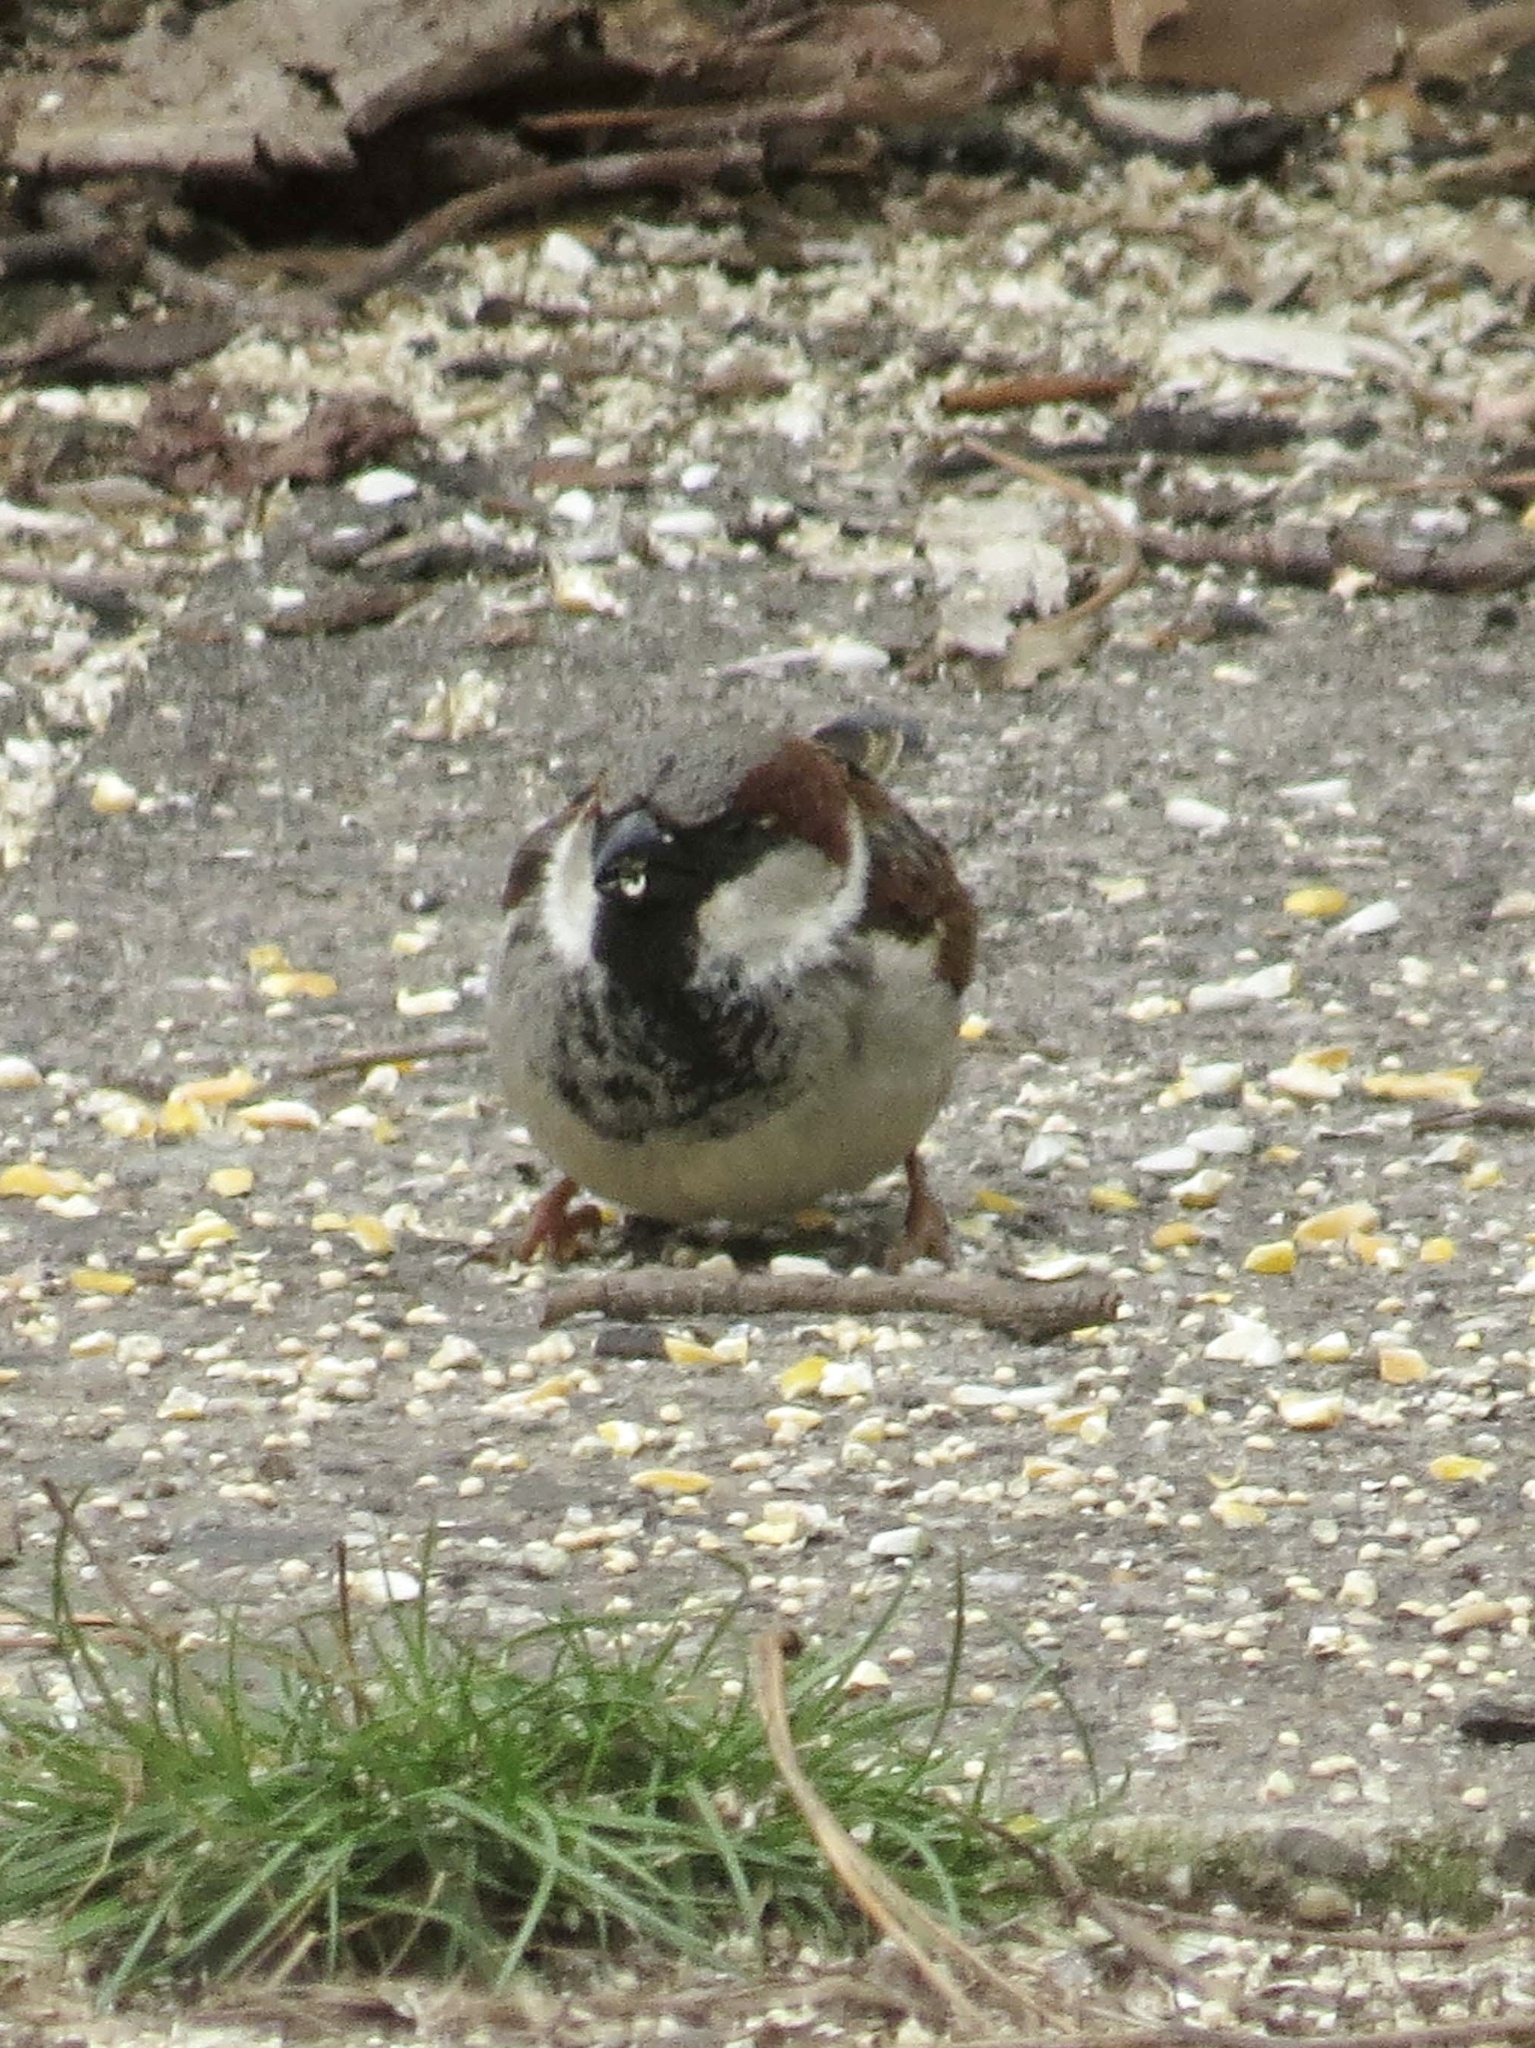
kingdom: Animalia
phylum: Chordata
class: Aves
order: Passeriformes
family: Passeridae
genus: Passer
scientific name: Passer domesticus
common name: House sparrow
